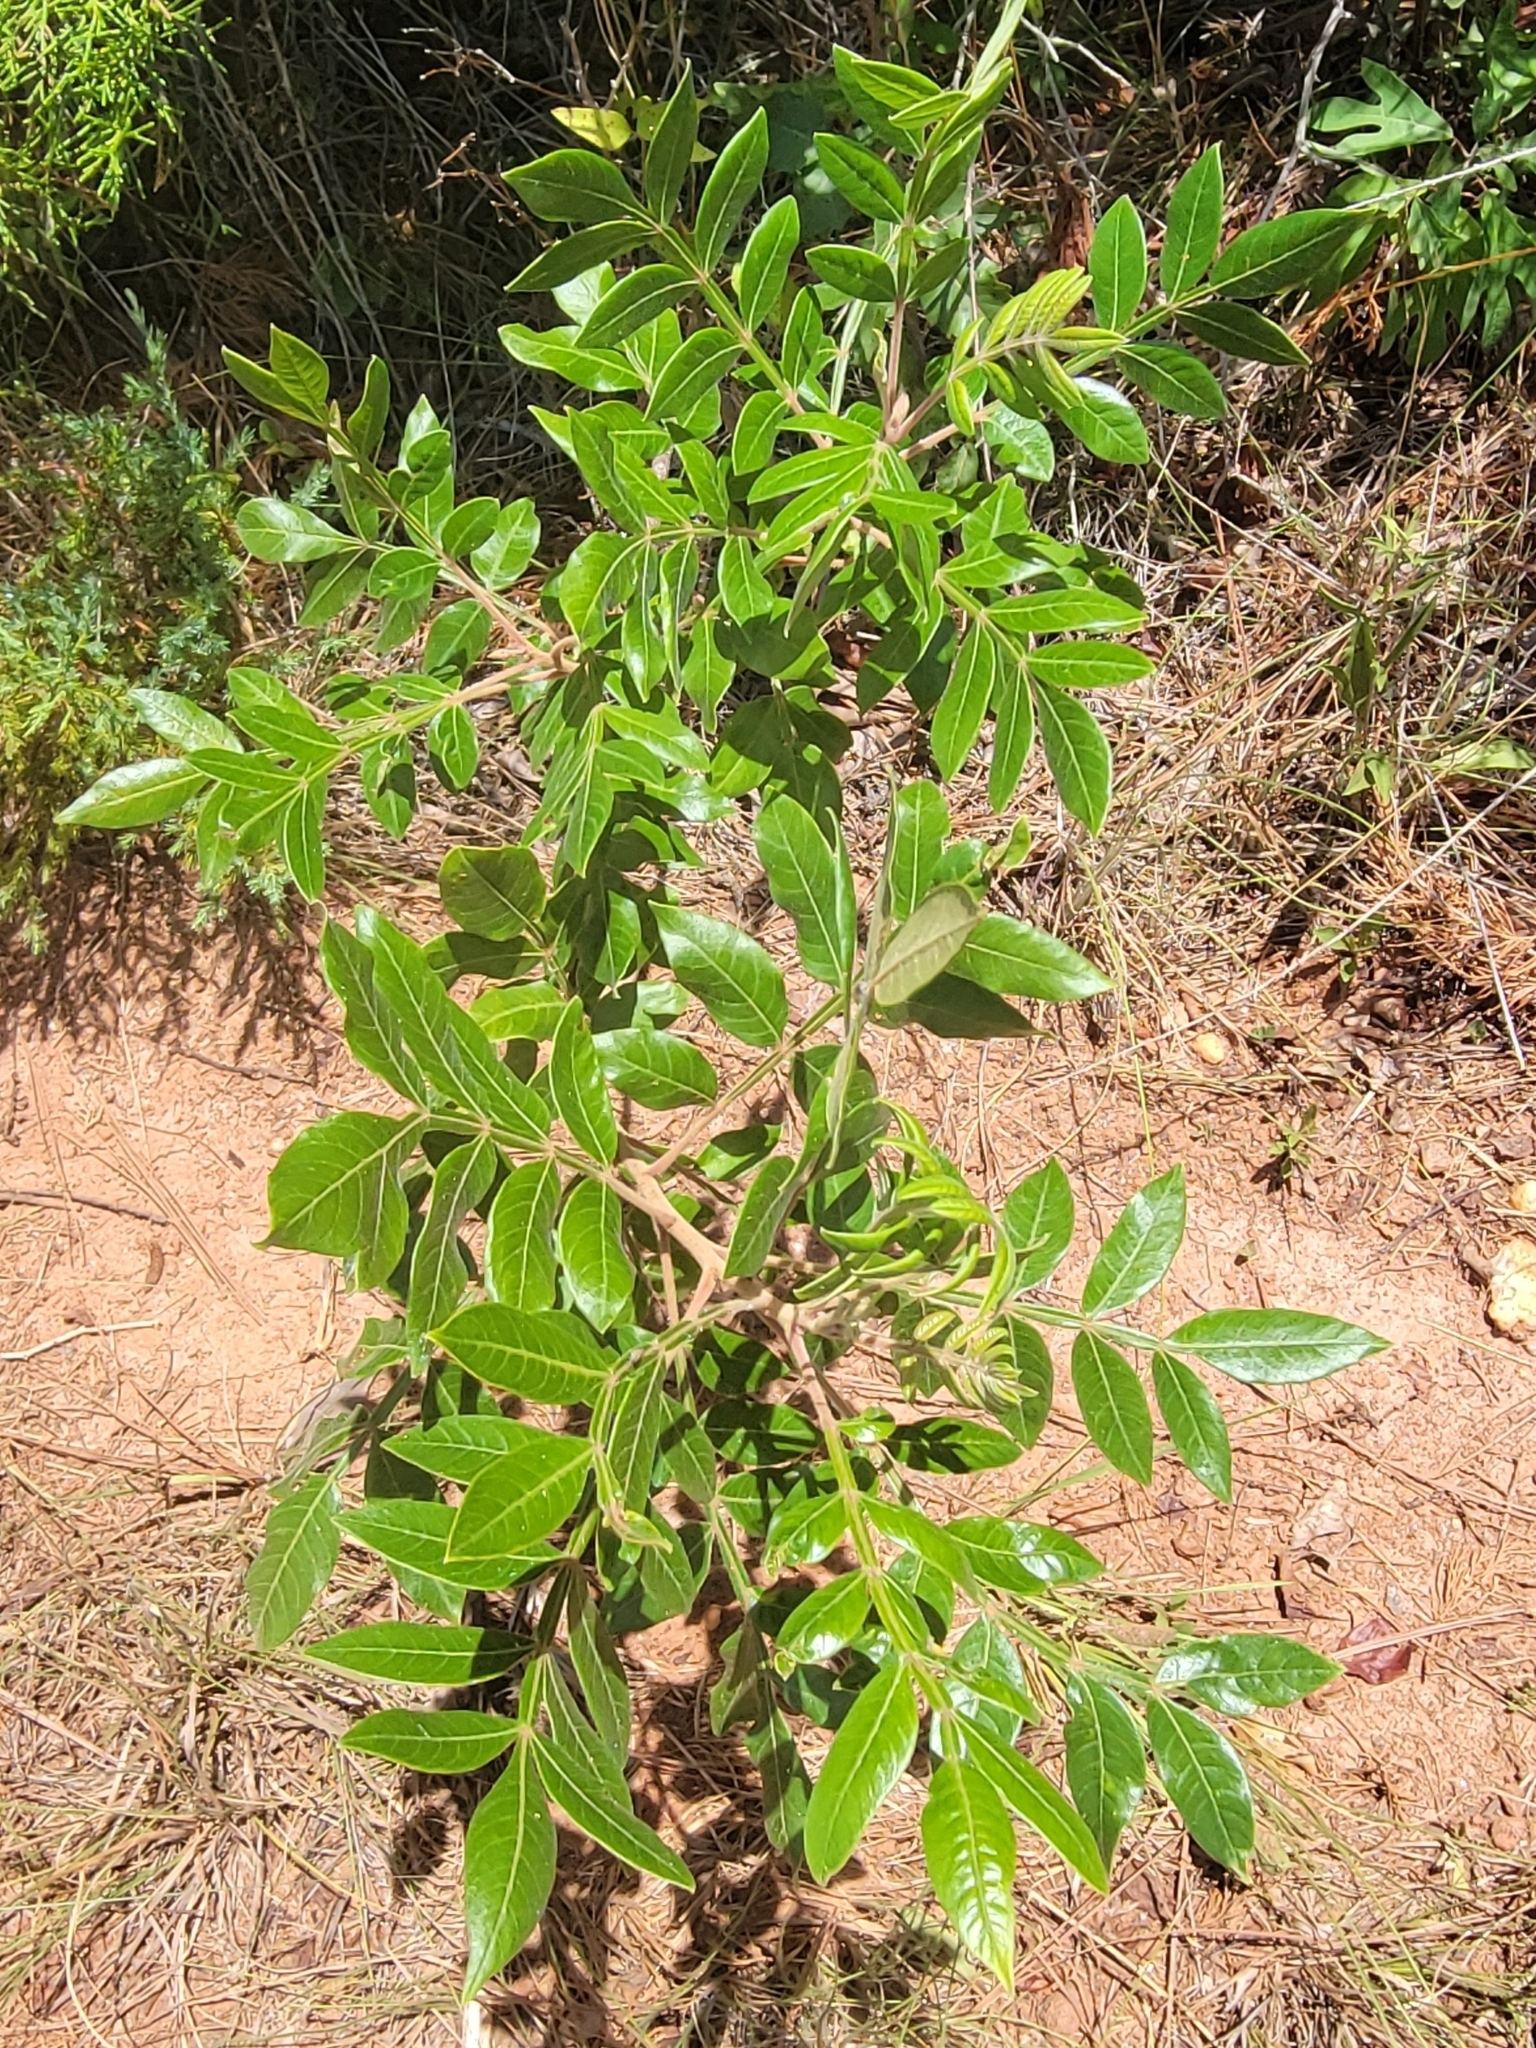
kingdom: Plantae
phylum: Tracheophyta
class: Magnoliopsida
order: Sapindales
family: Anacardiaceae
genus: Rhus
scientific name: Rhus copallina
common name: Shining sumac
